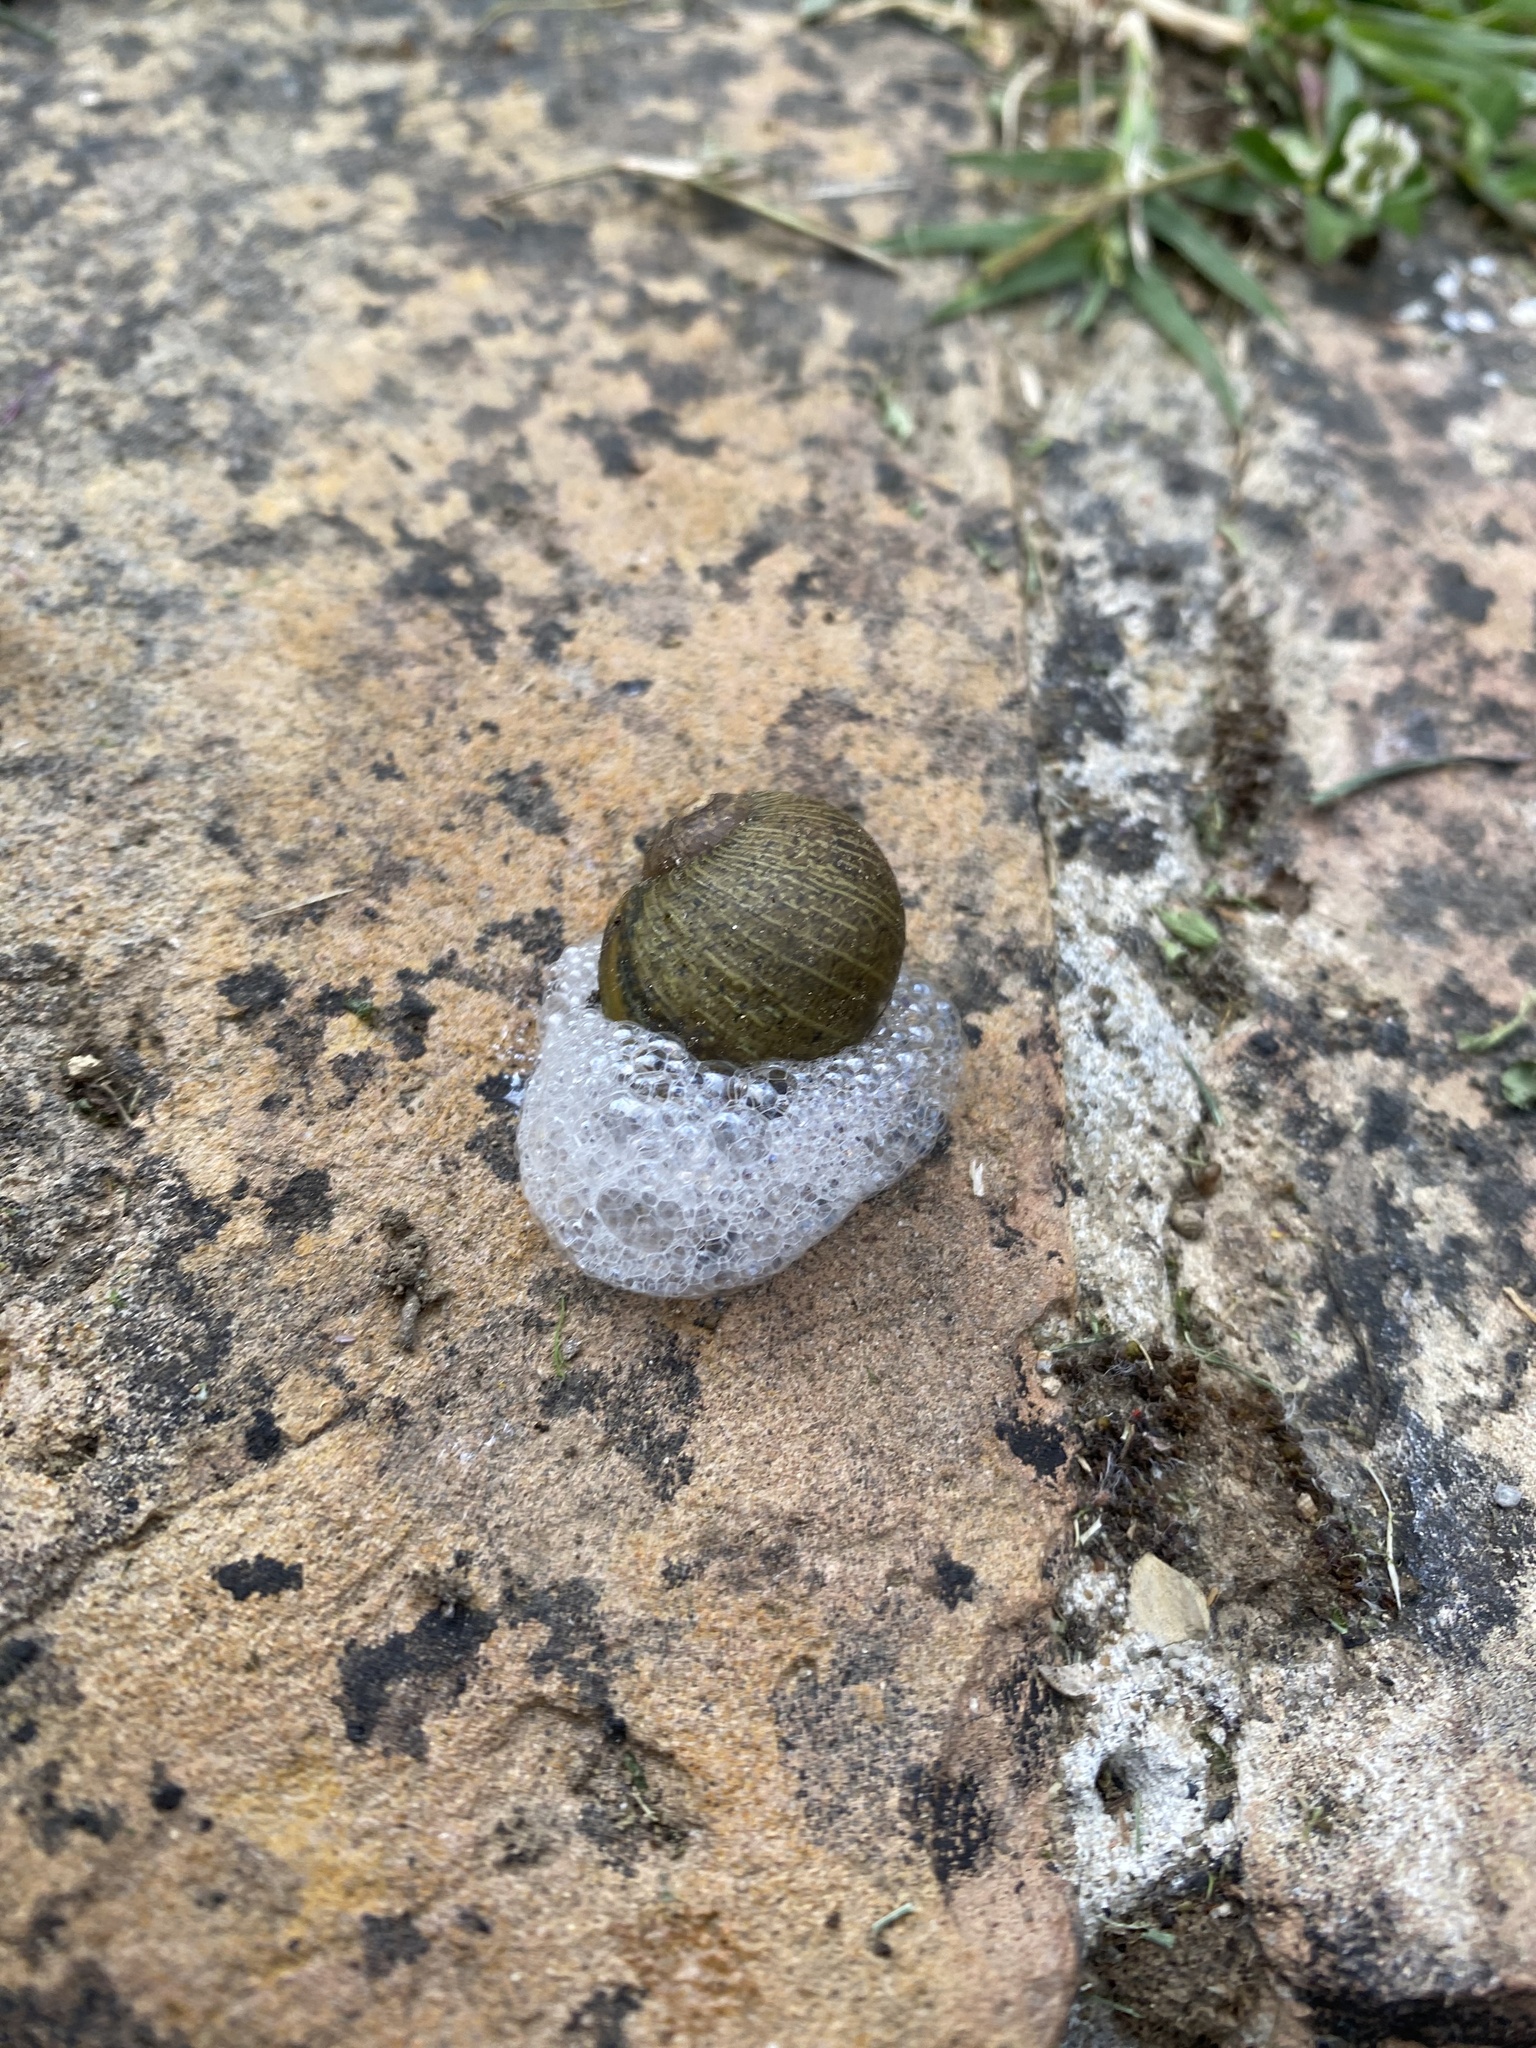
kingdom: Animalia
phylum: Mollusca
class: Gastropoda
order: Stylommatophora
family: Helicidae
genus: Cantareus
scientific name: Cantareus apertus
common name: Green gardensnail
